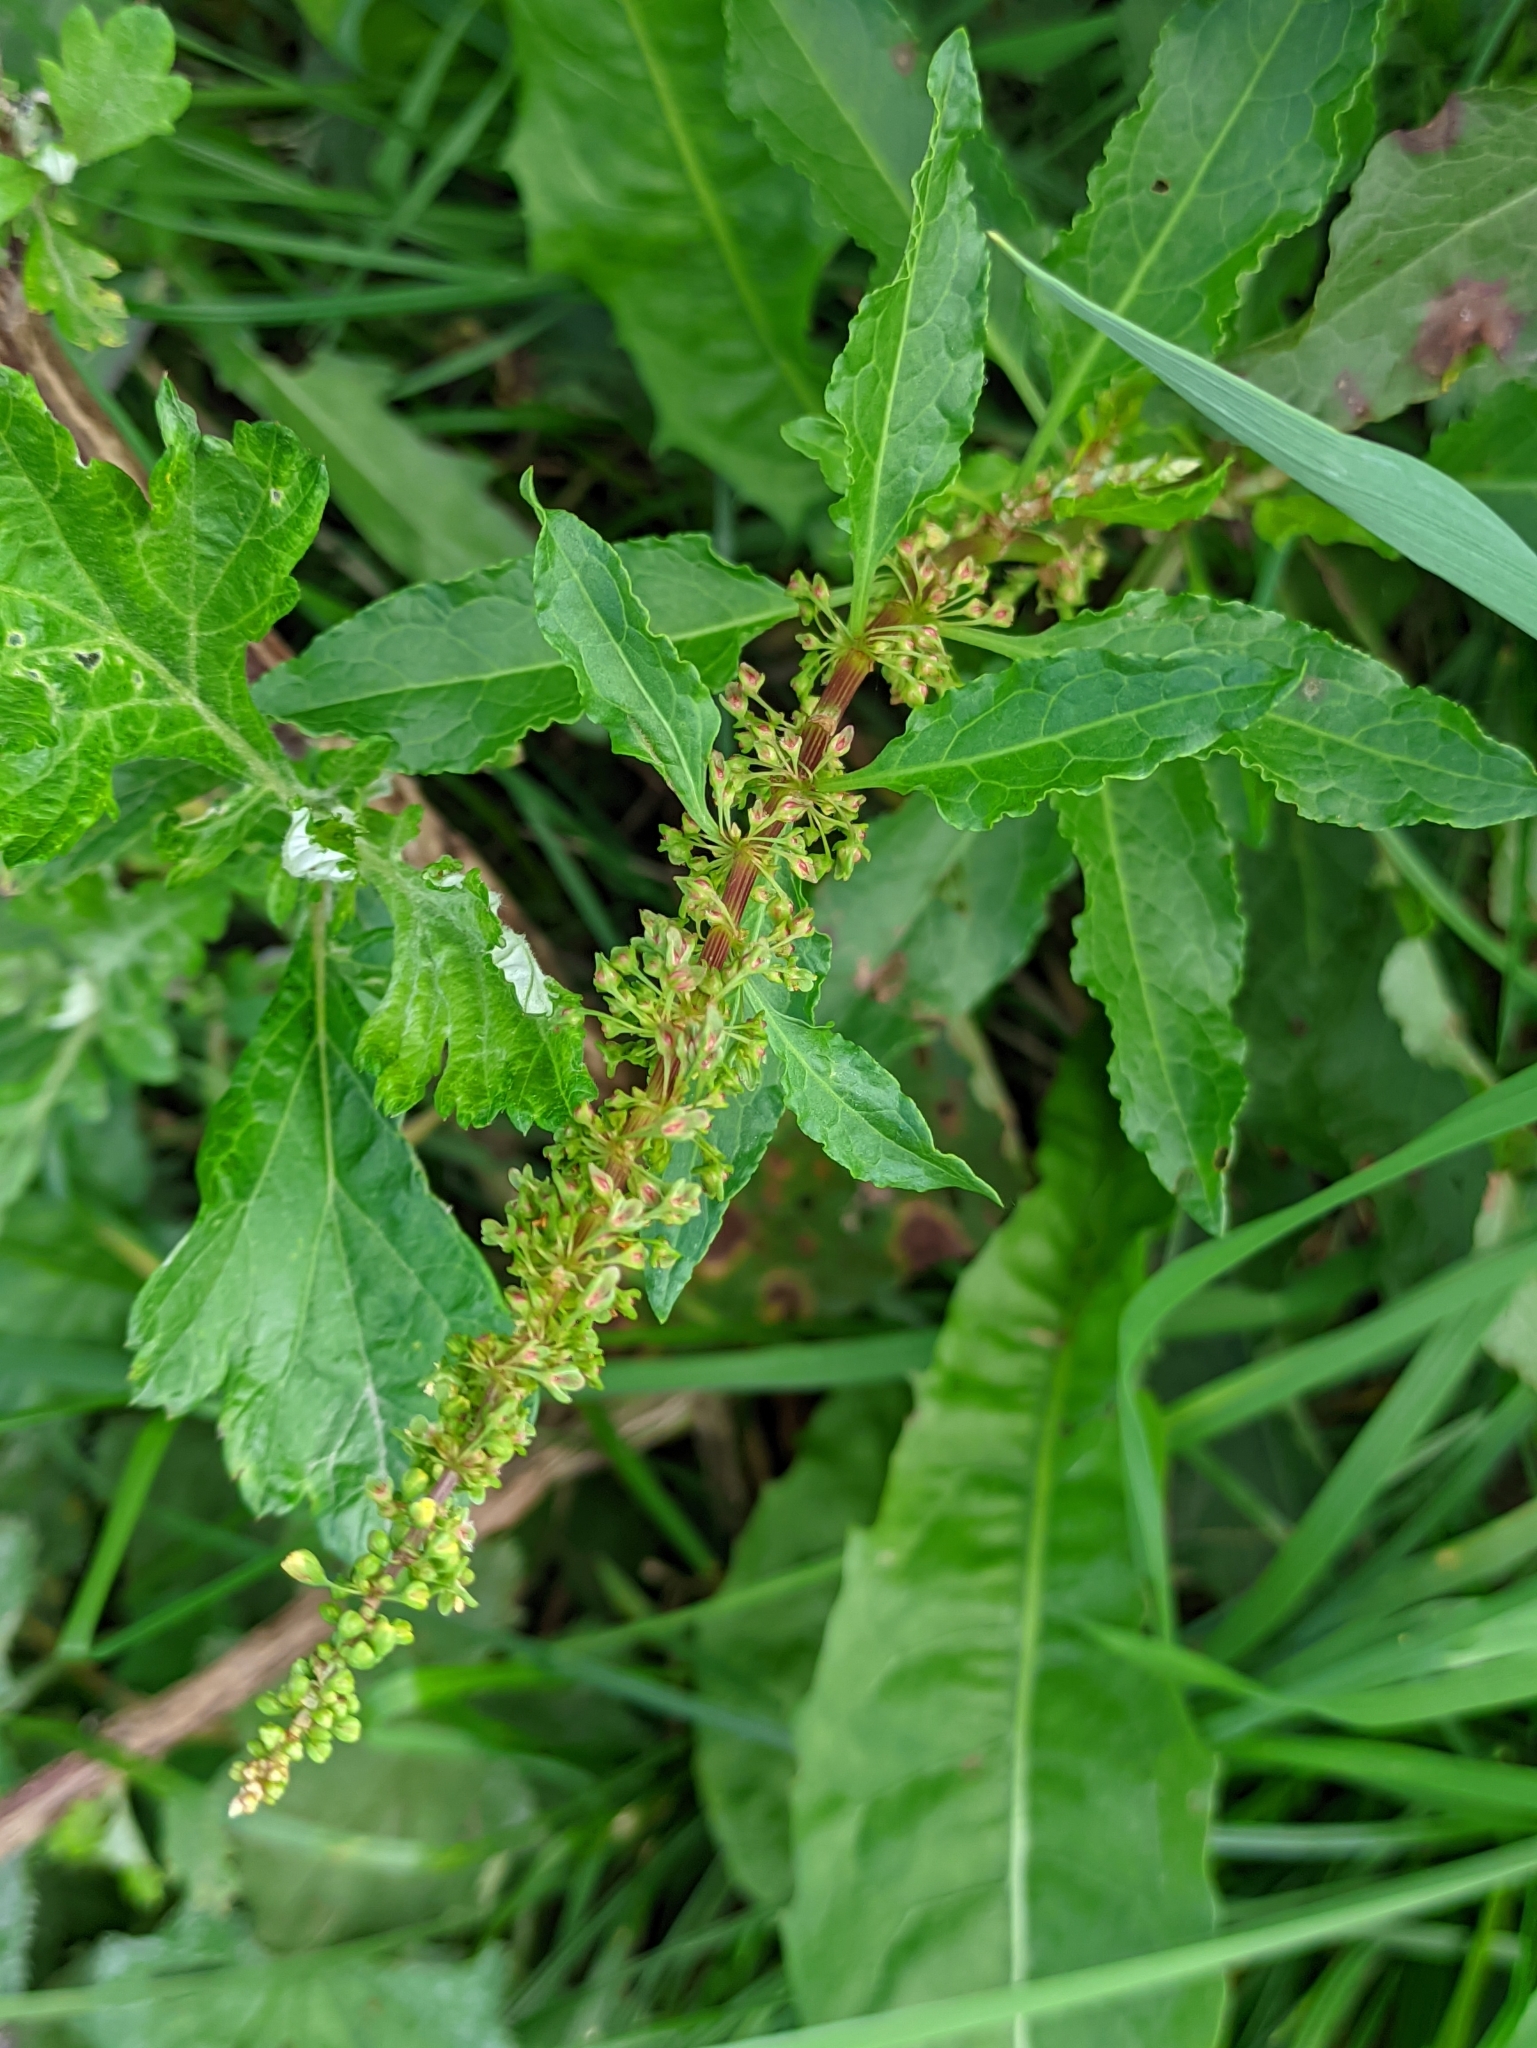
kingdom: Plantae
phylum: Tracheophyta
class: Magnoliopsida
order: Caryophyllales
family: Polygonaceae
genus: Rumex
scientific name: Rumex obtusifolius
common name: Bitter dock
